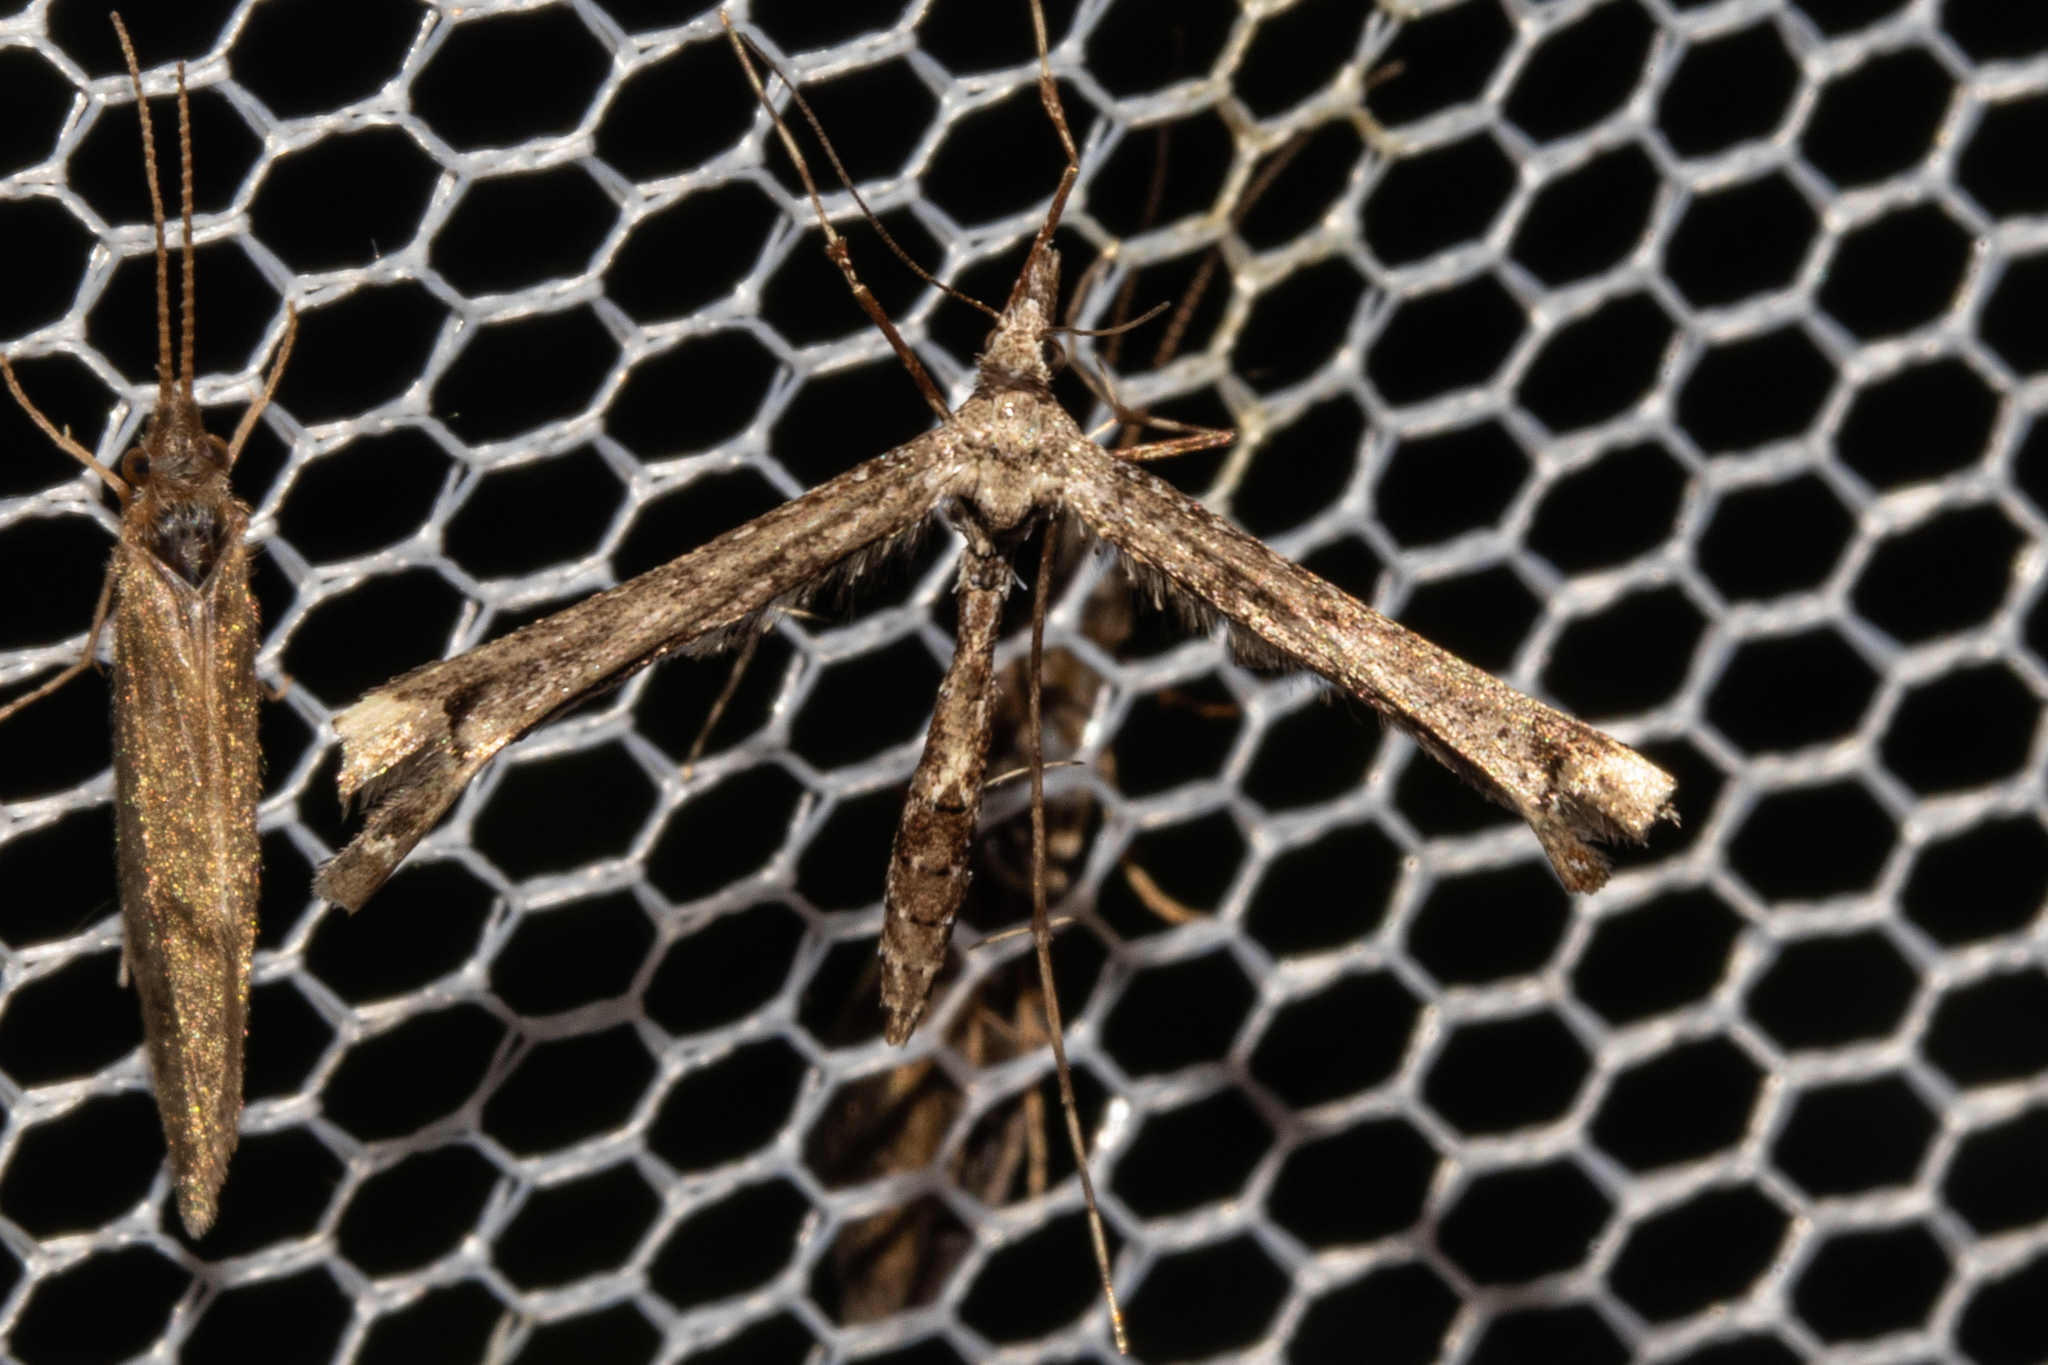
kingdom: Animalia
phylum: Arthropoda
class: Insecta
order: Lepidoptera
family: Pterophoridae
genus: Amblyptilia
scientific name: Amblyptilia repletalis
